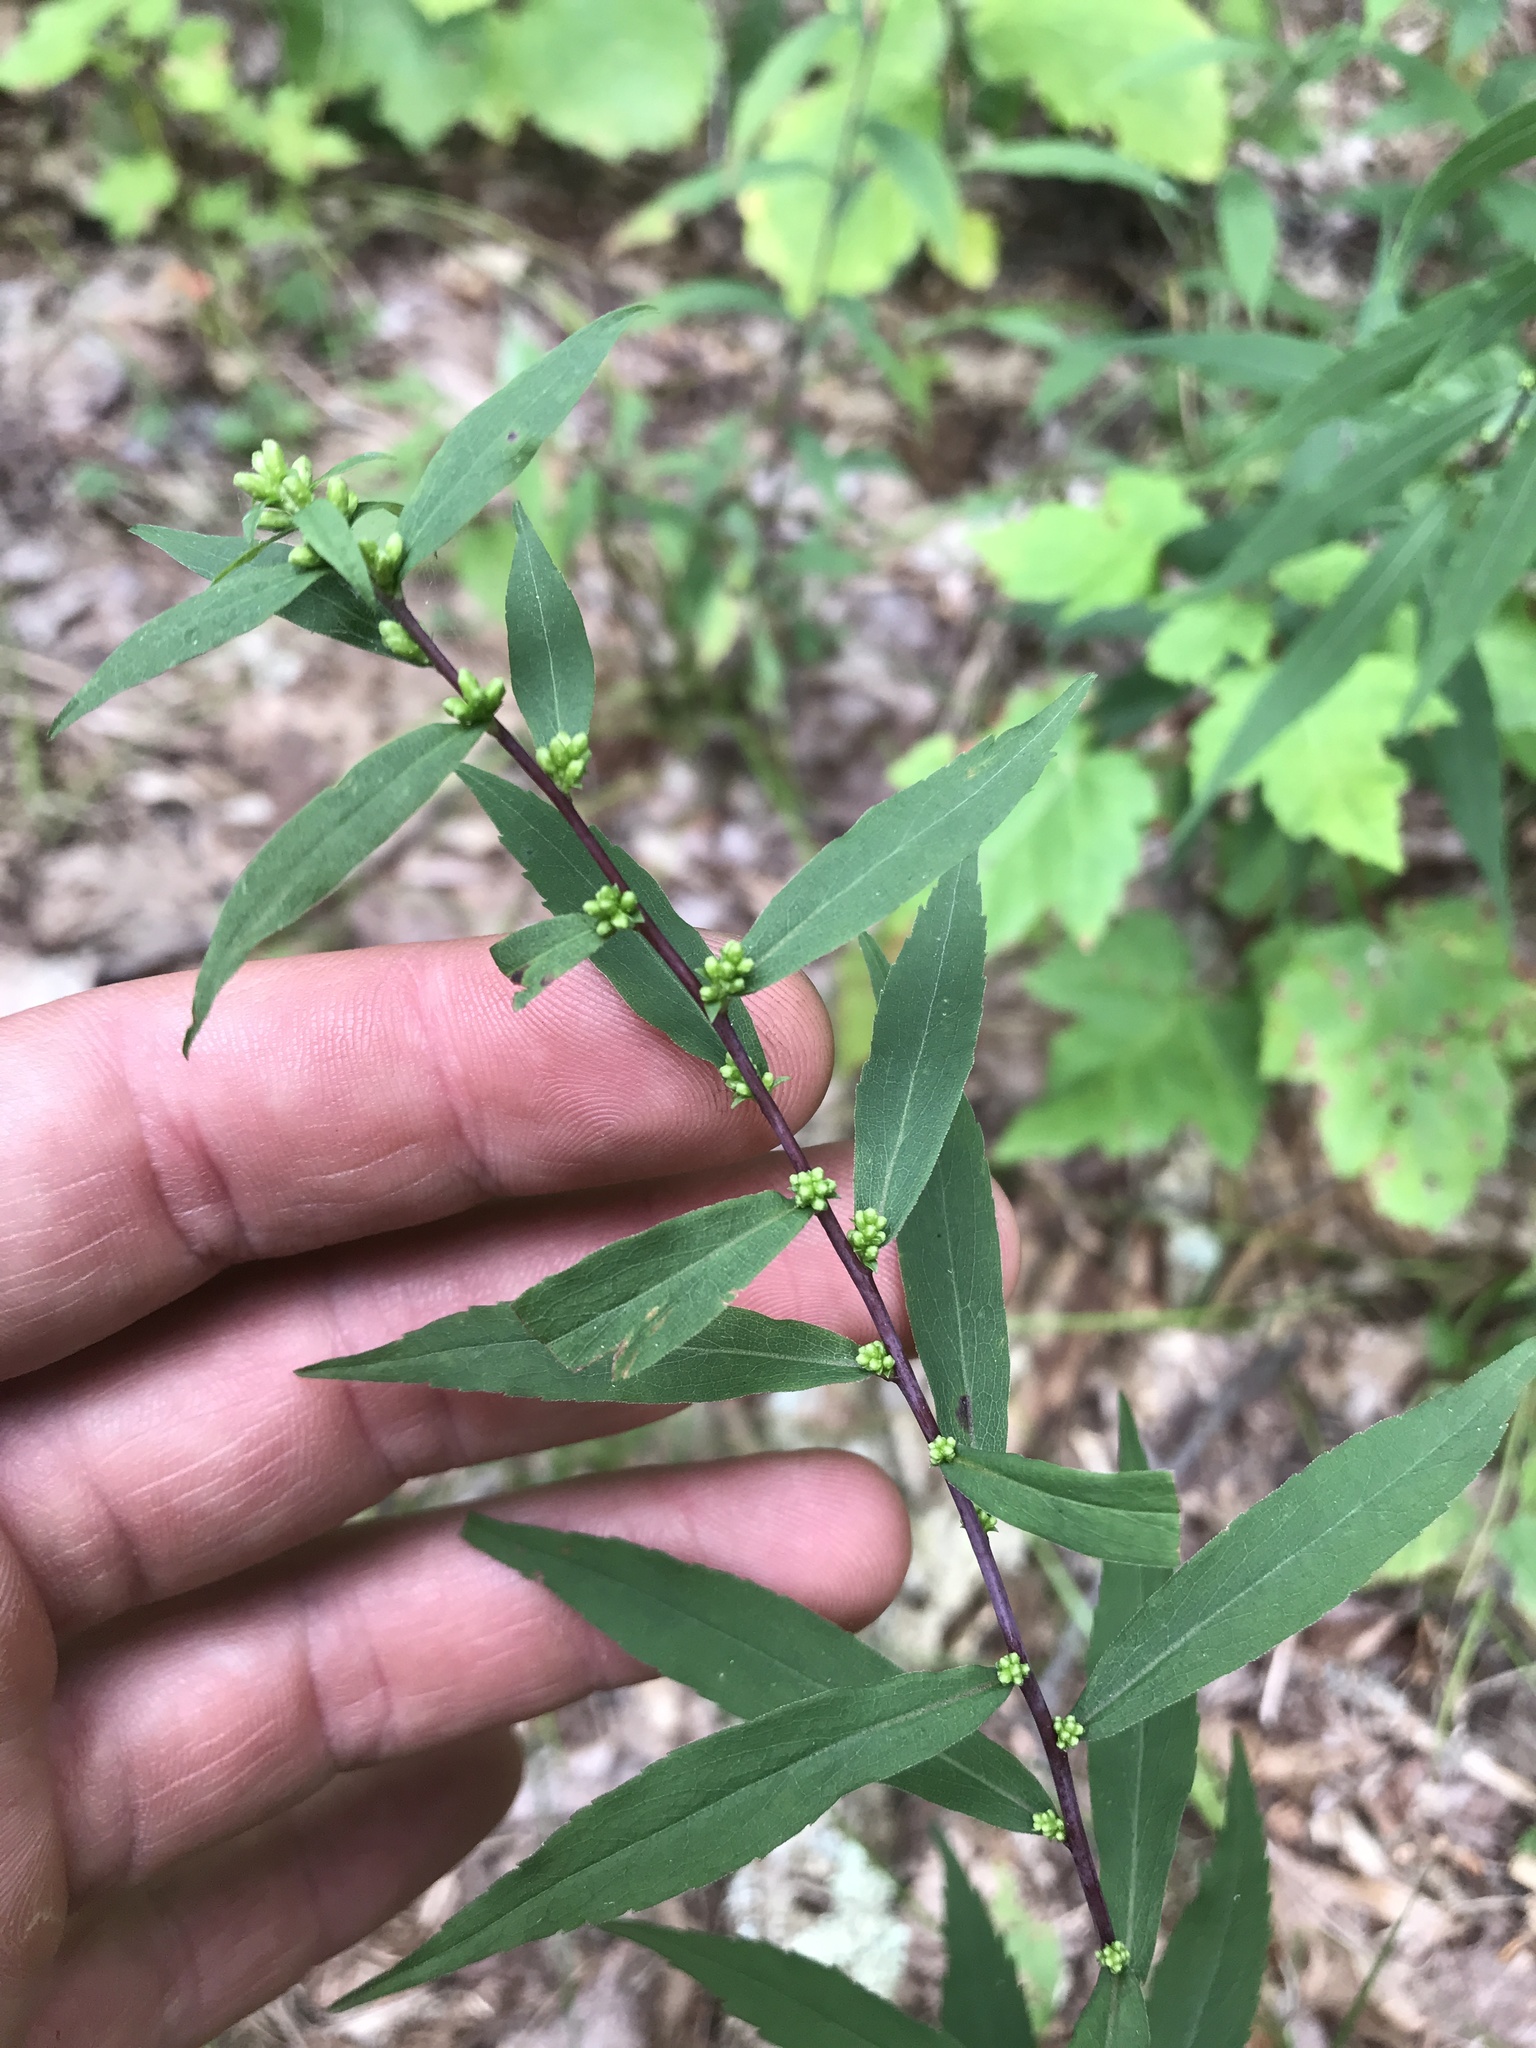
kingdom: Plantae
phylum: Tracheophyta
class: Magnoliopsida
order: Asterales
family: Asteraceae
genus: Solidago
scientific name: Solidago caesia
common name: Woodland goldenrod
